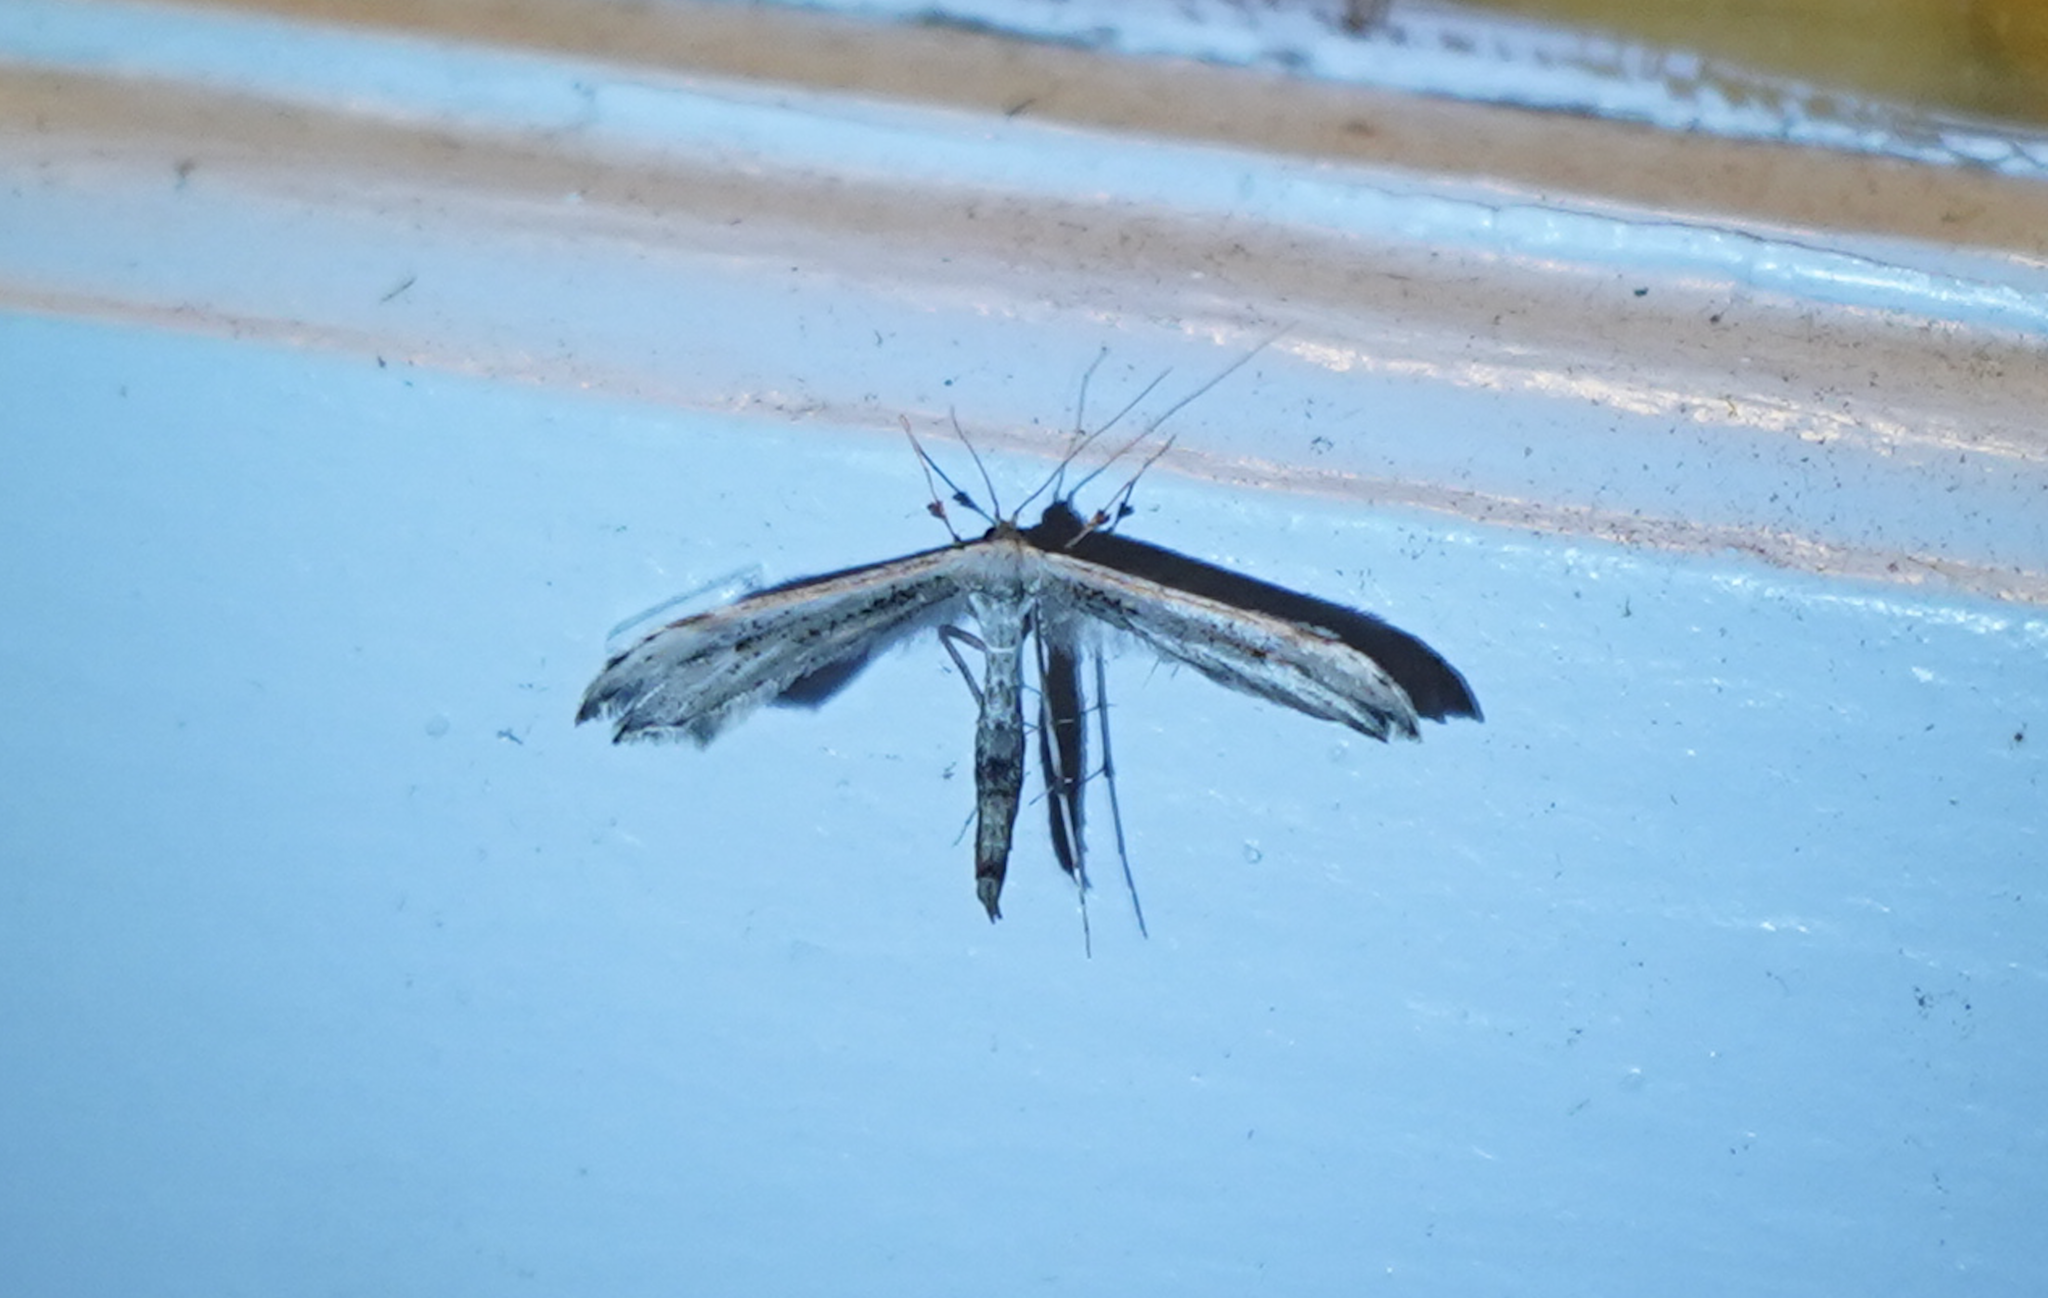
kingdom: Animalia
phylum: Arthropoda
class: Insecta
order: Lepidoptera
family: Pterophoridae
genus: Oidaematophorus
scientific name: Oidaematophorus eupatorii
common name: Eupatorium plume moth
